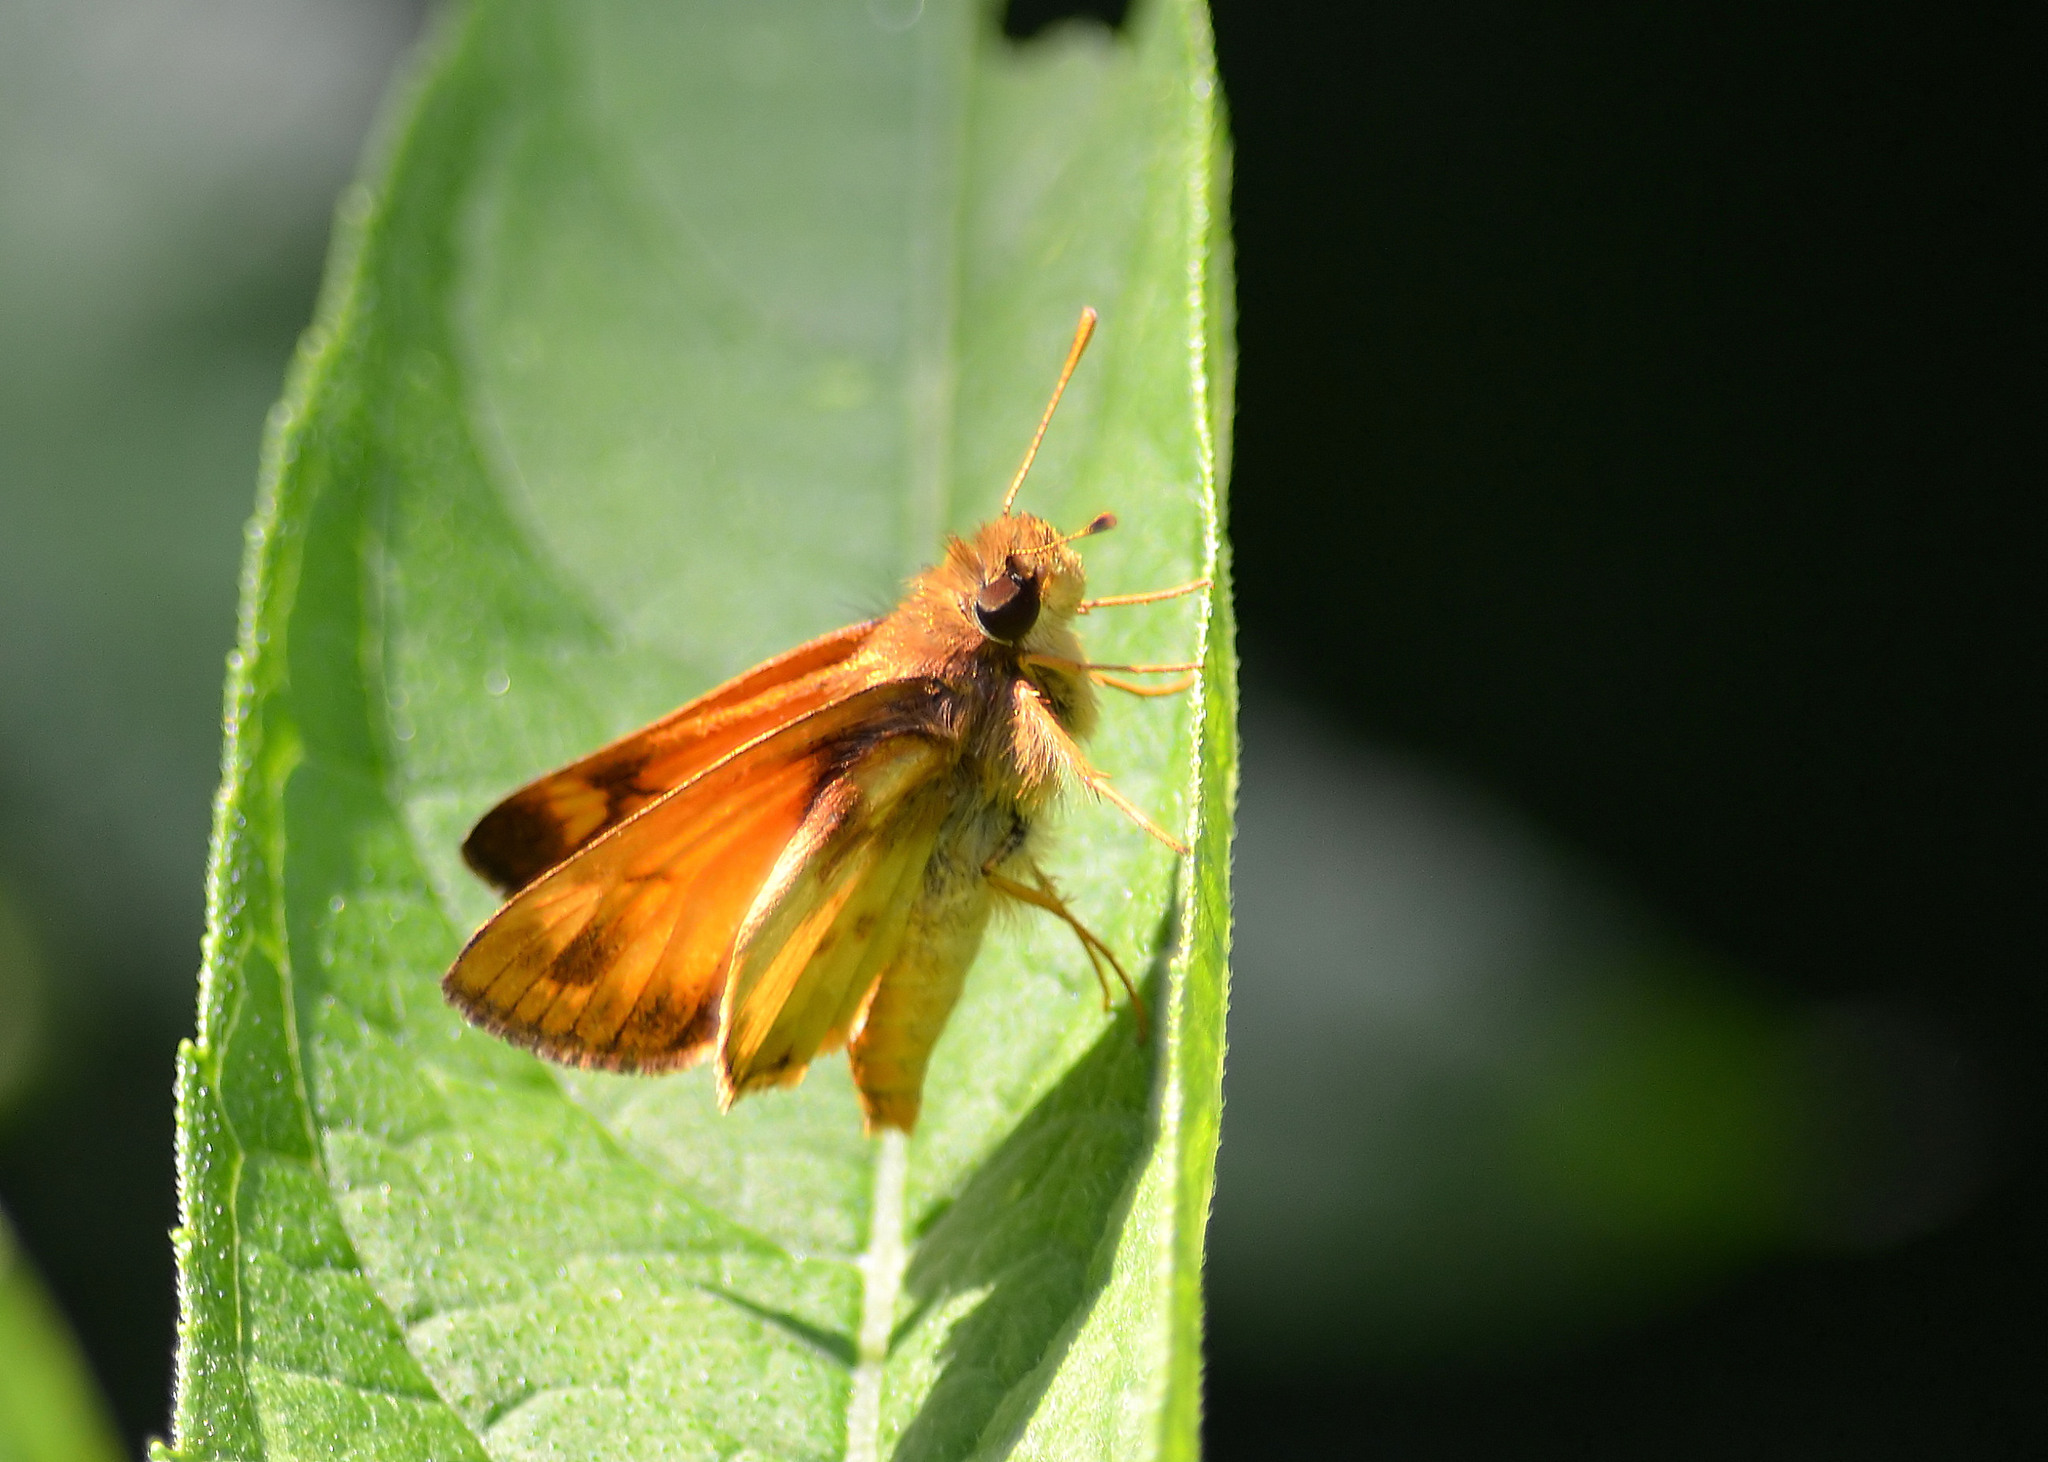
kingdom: Animalia
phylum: Arthropoda
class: Insecta
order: Lepidoptera
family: Hesperiidae
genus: Lon
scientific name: Lon zabulon
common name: Zabulon skipper
